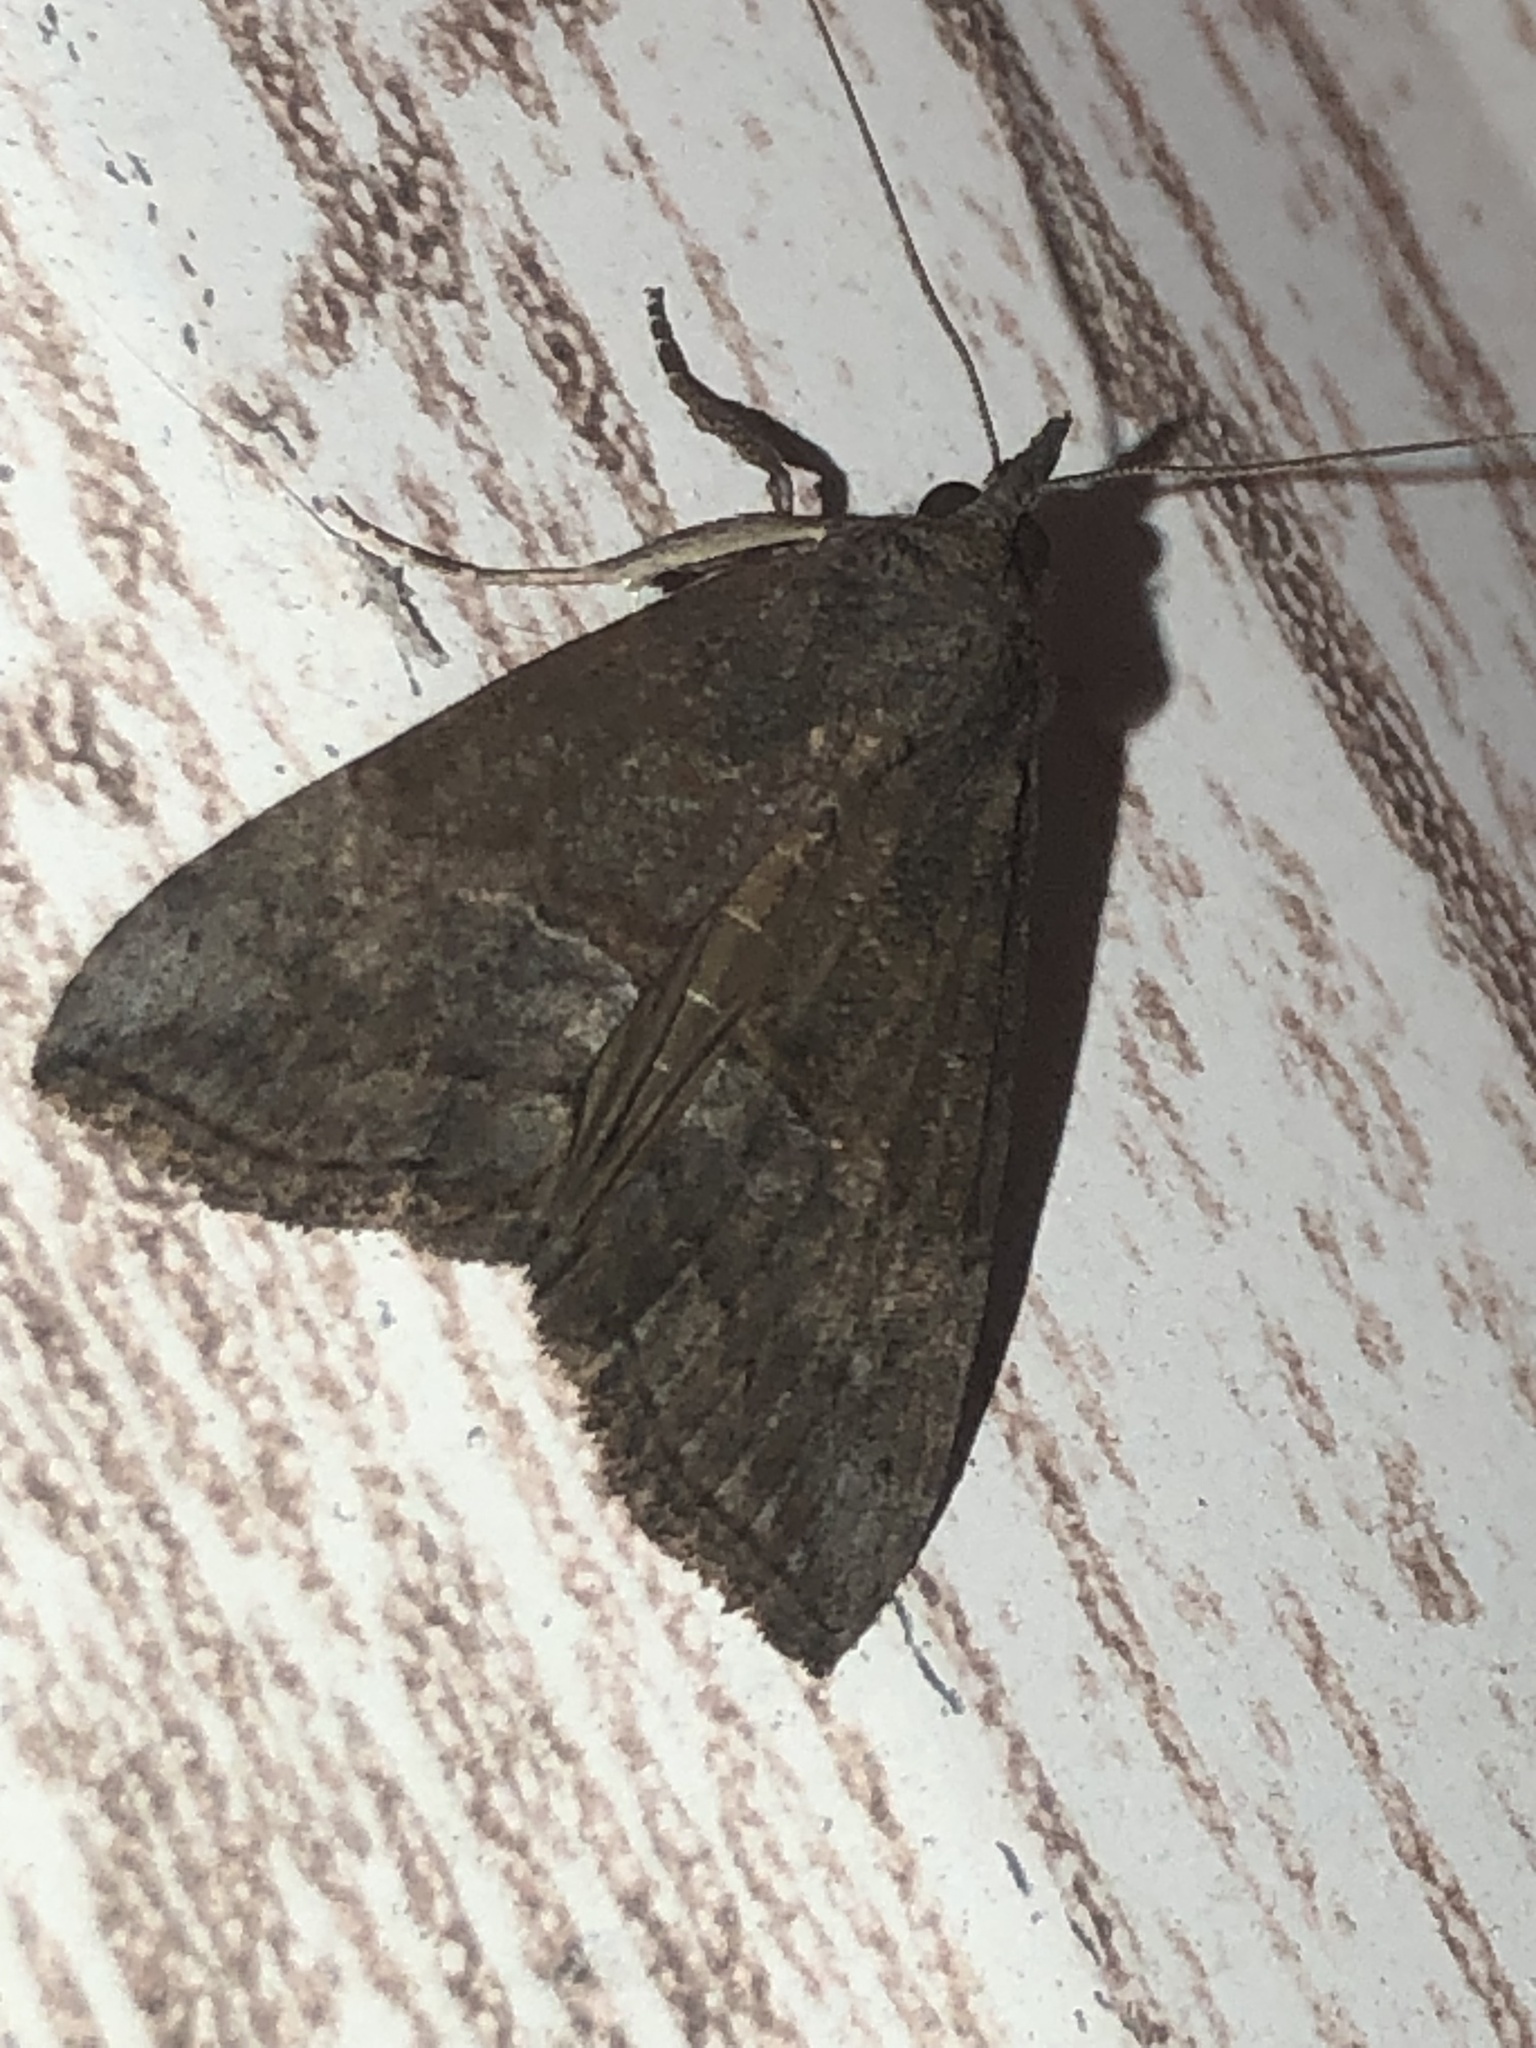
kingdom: Animalia
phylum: Arthropoda
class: Insecta
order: Lepidoptera
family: Erebidae
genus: Hypena
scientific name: Hypena scabra
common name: Green cloverworm
